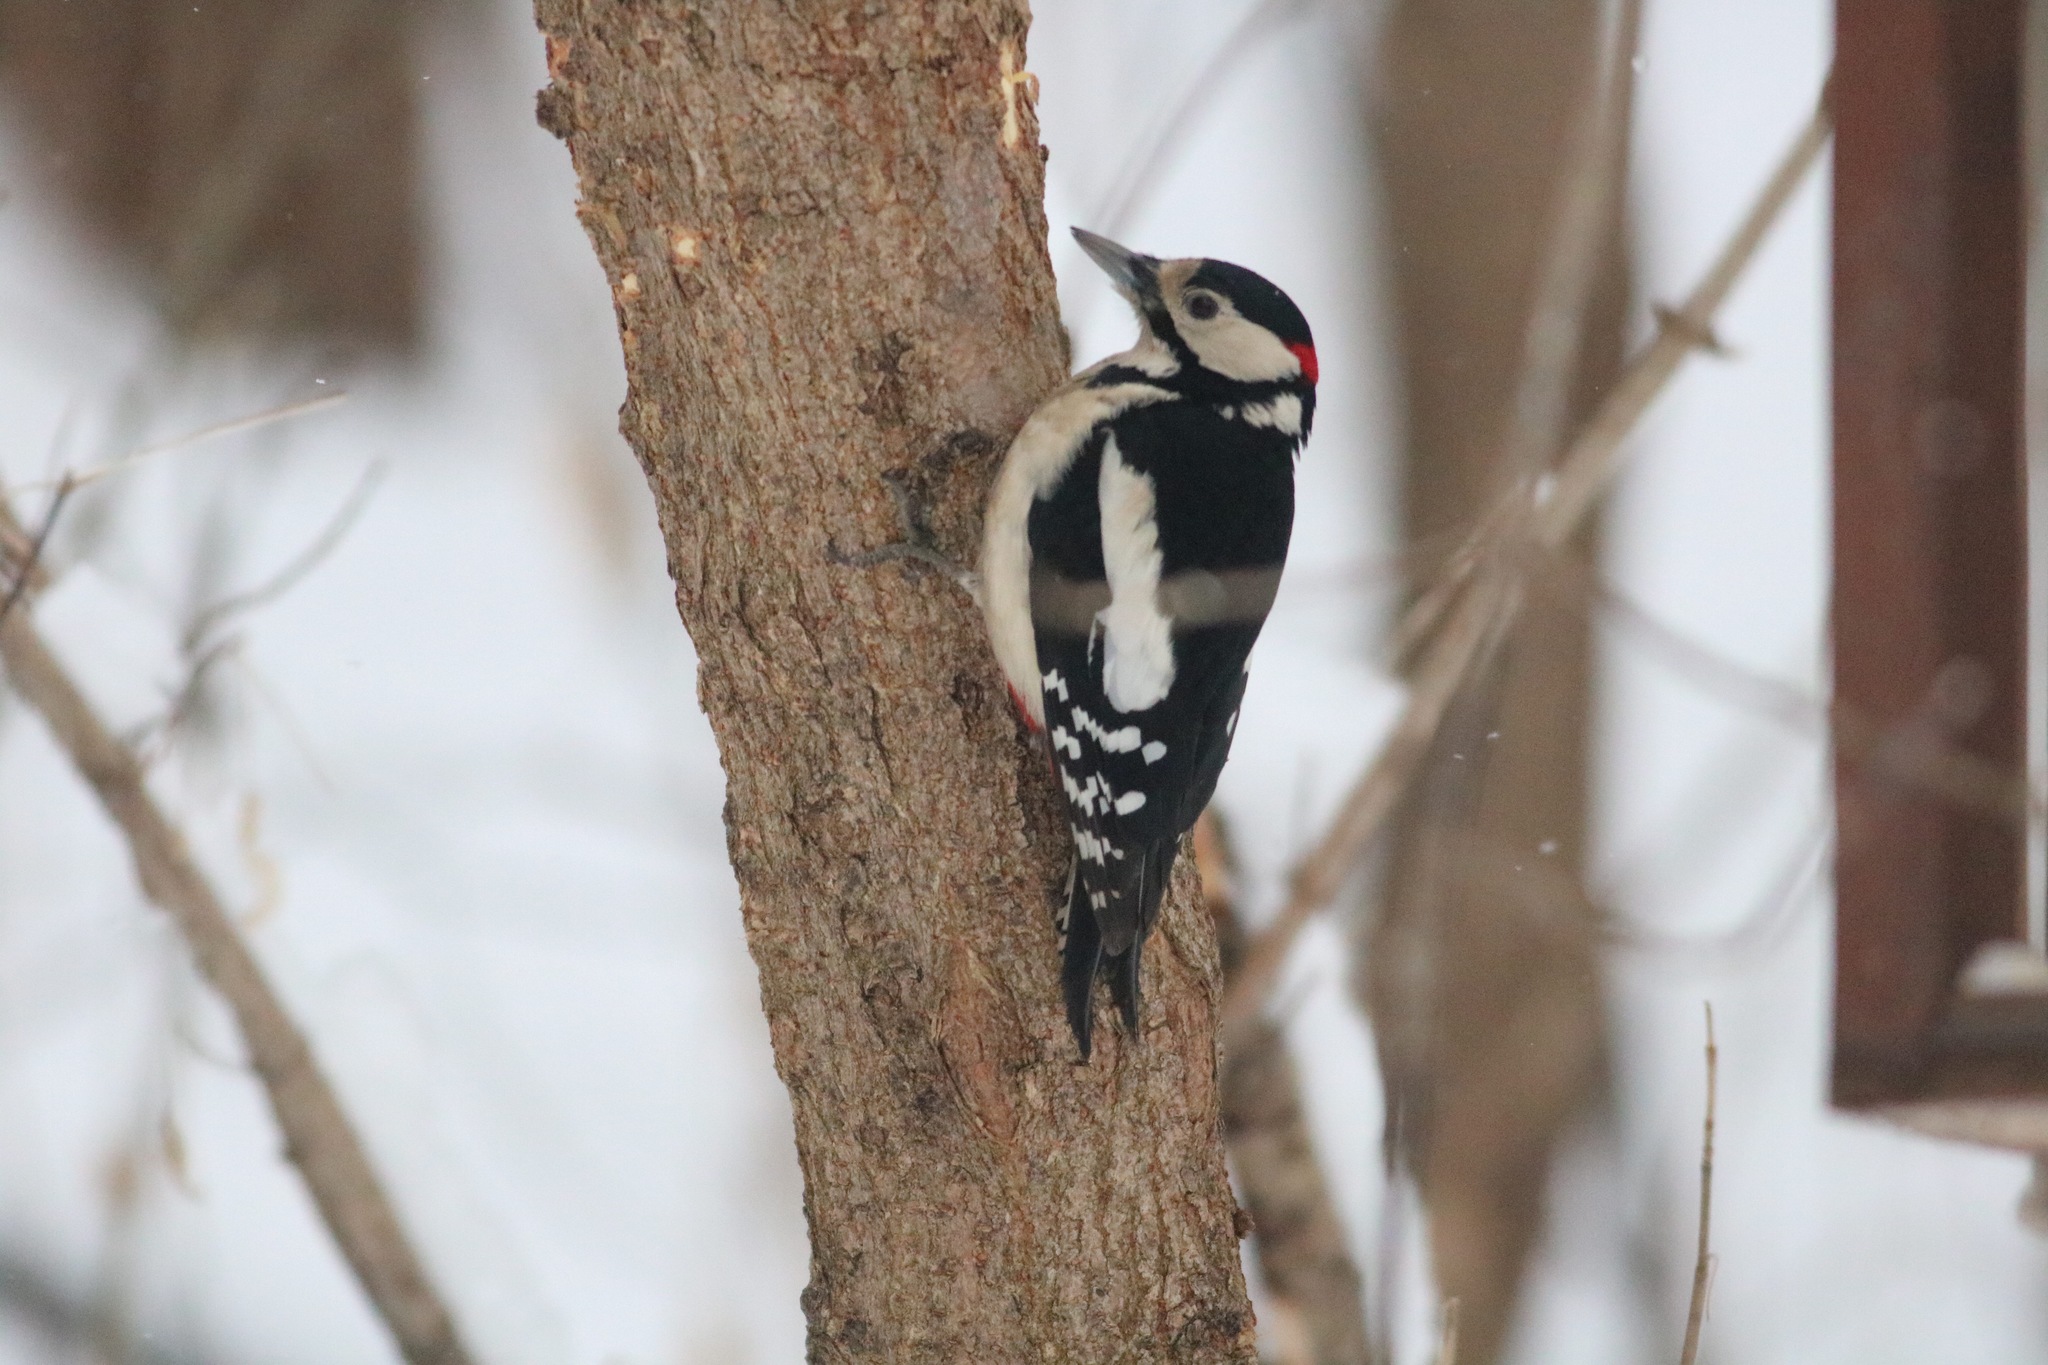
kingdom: Animalia
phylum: Chordata
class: Aves
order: Piciformes
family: Picidae
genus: Dendrocopos
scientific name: Dendrocopos major
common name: Great spotted woodpecker
